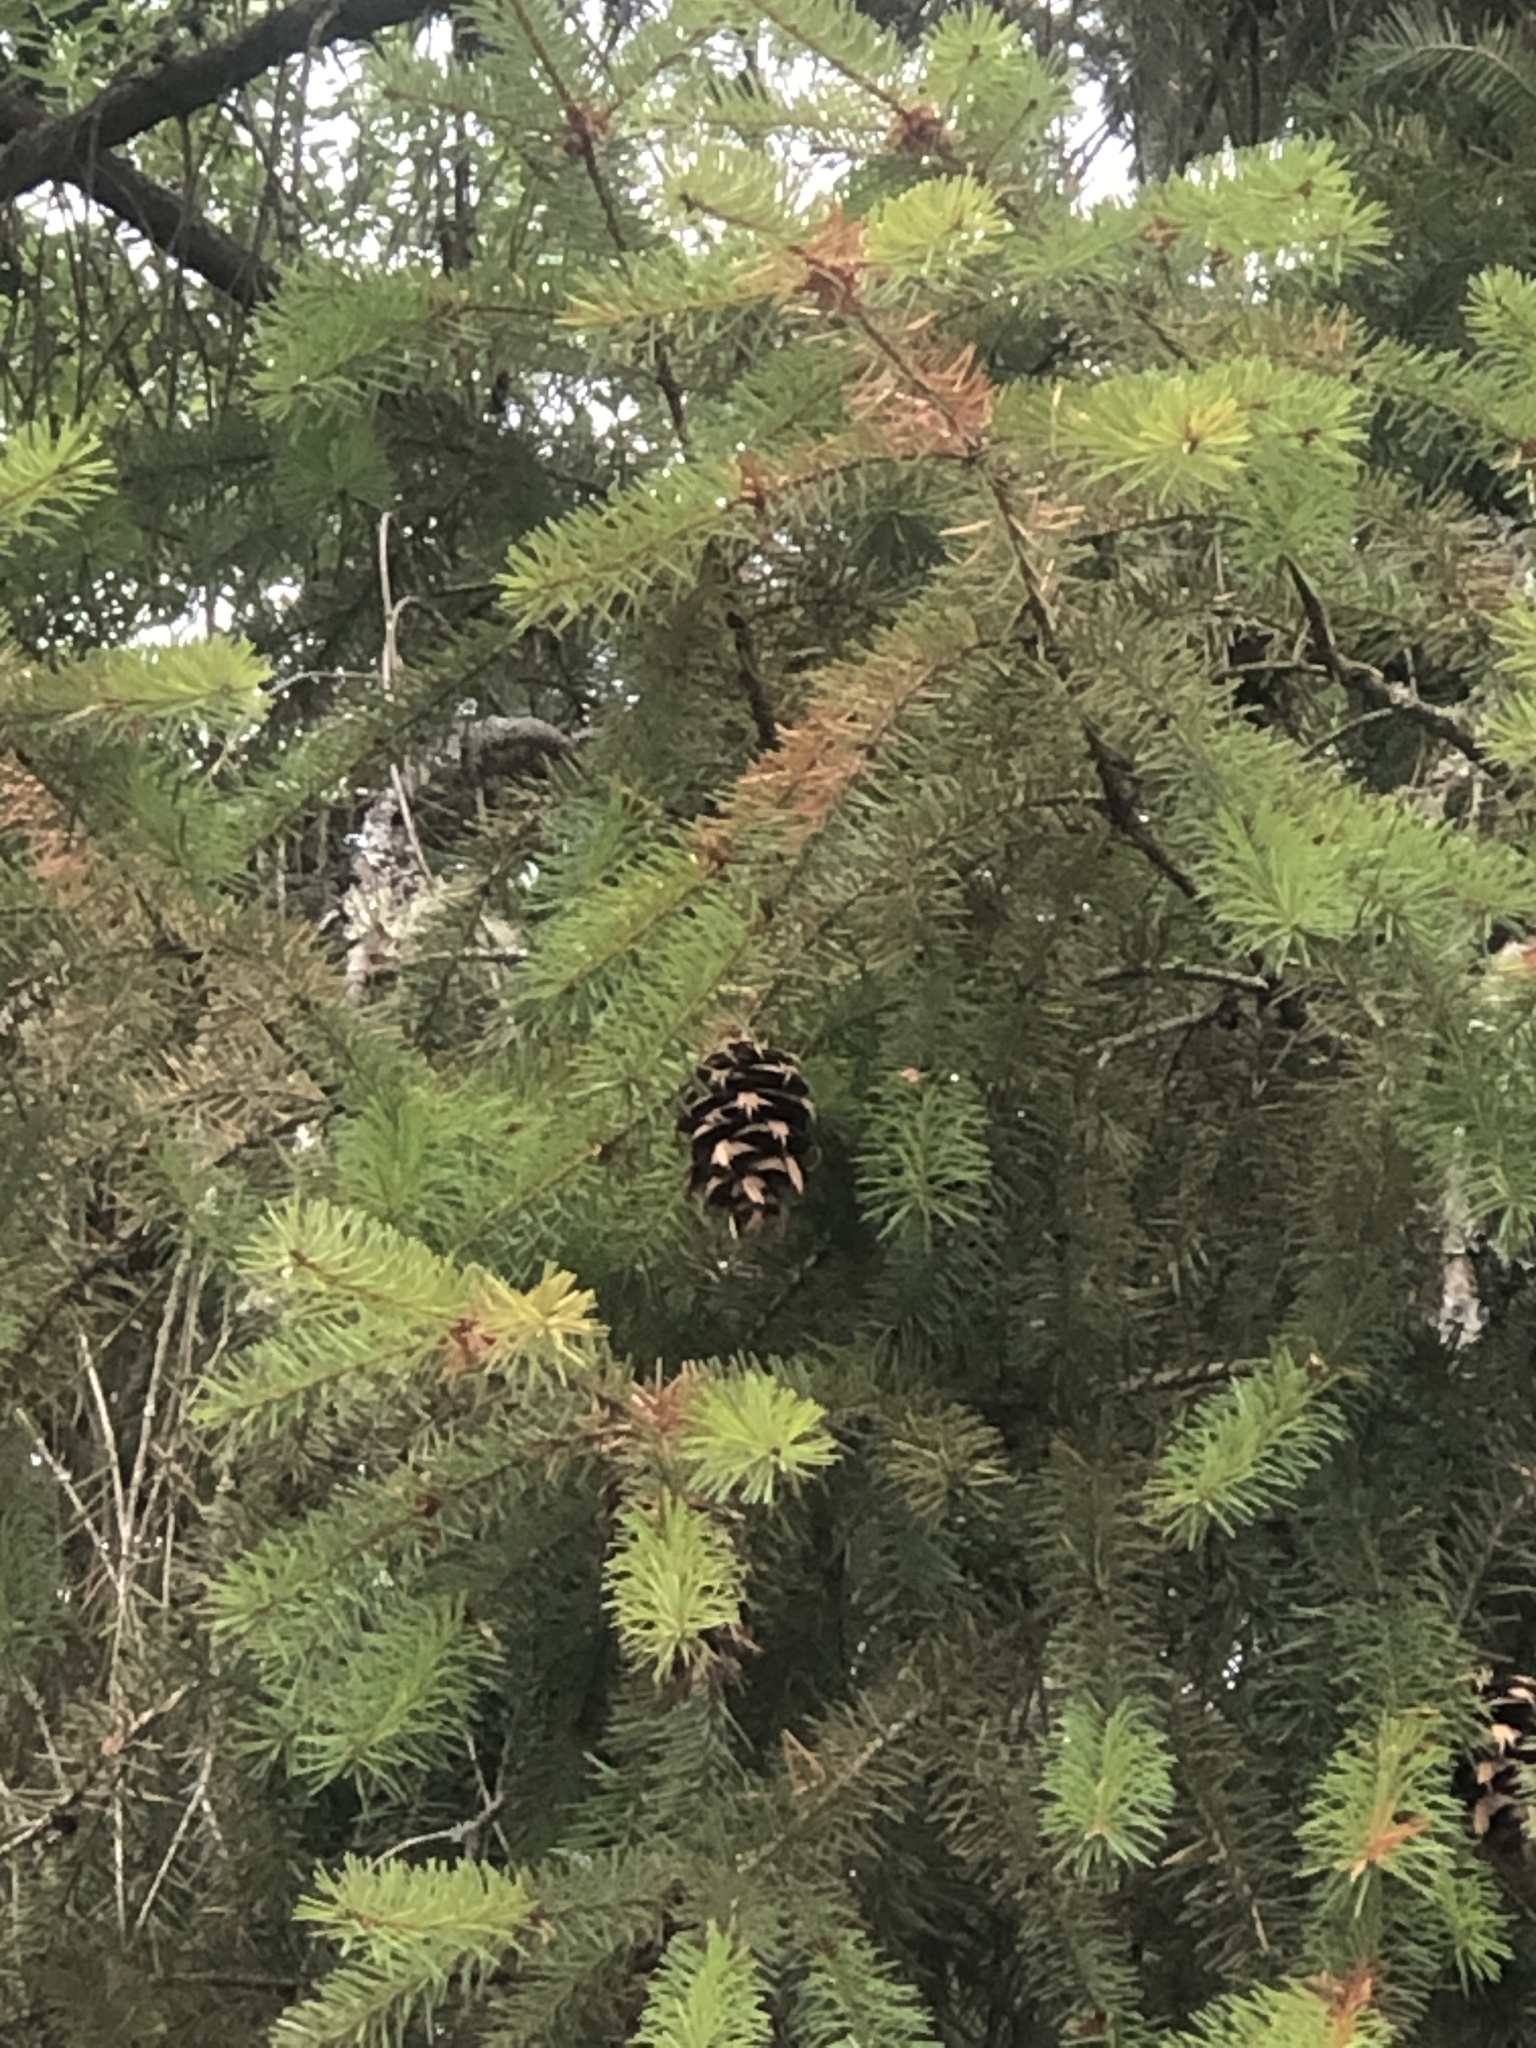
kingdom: Plantae
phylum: Tracheophyta
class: Pinopsida
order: Pinales
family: Pinaceae
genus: Pseudotsuga
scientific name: Pseudotsuga menziesii
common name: Douglas fir
